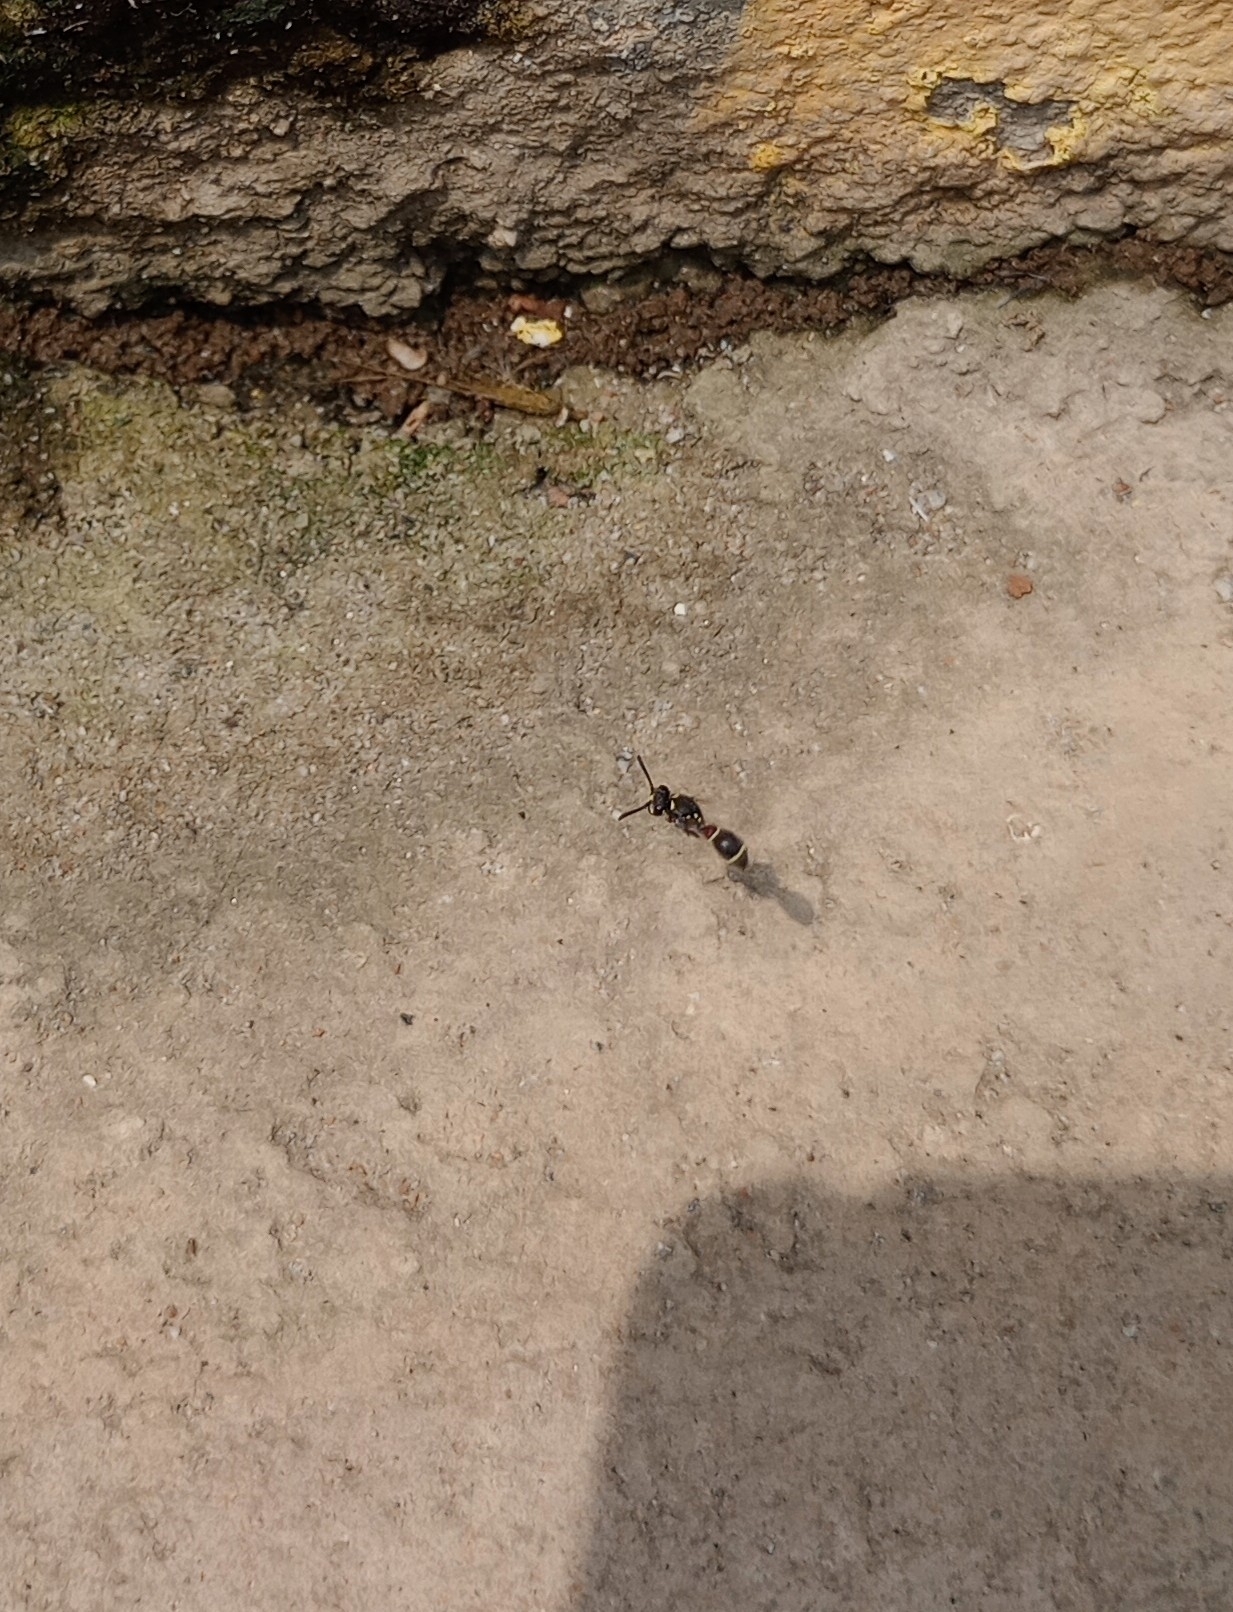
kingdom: Animalia
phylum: Arthropoda
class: Insecta
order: Hymenoptera
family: Eumenidae
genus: Paraleptomenes
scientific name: Paraleptomenes miniatus
